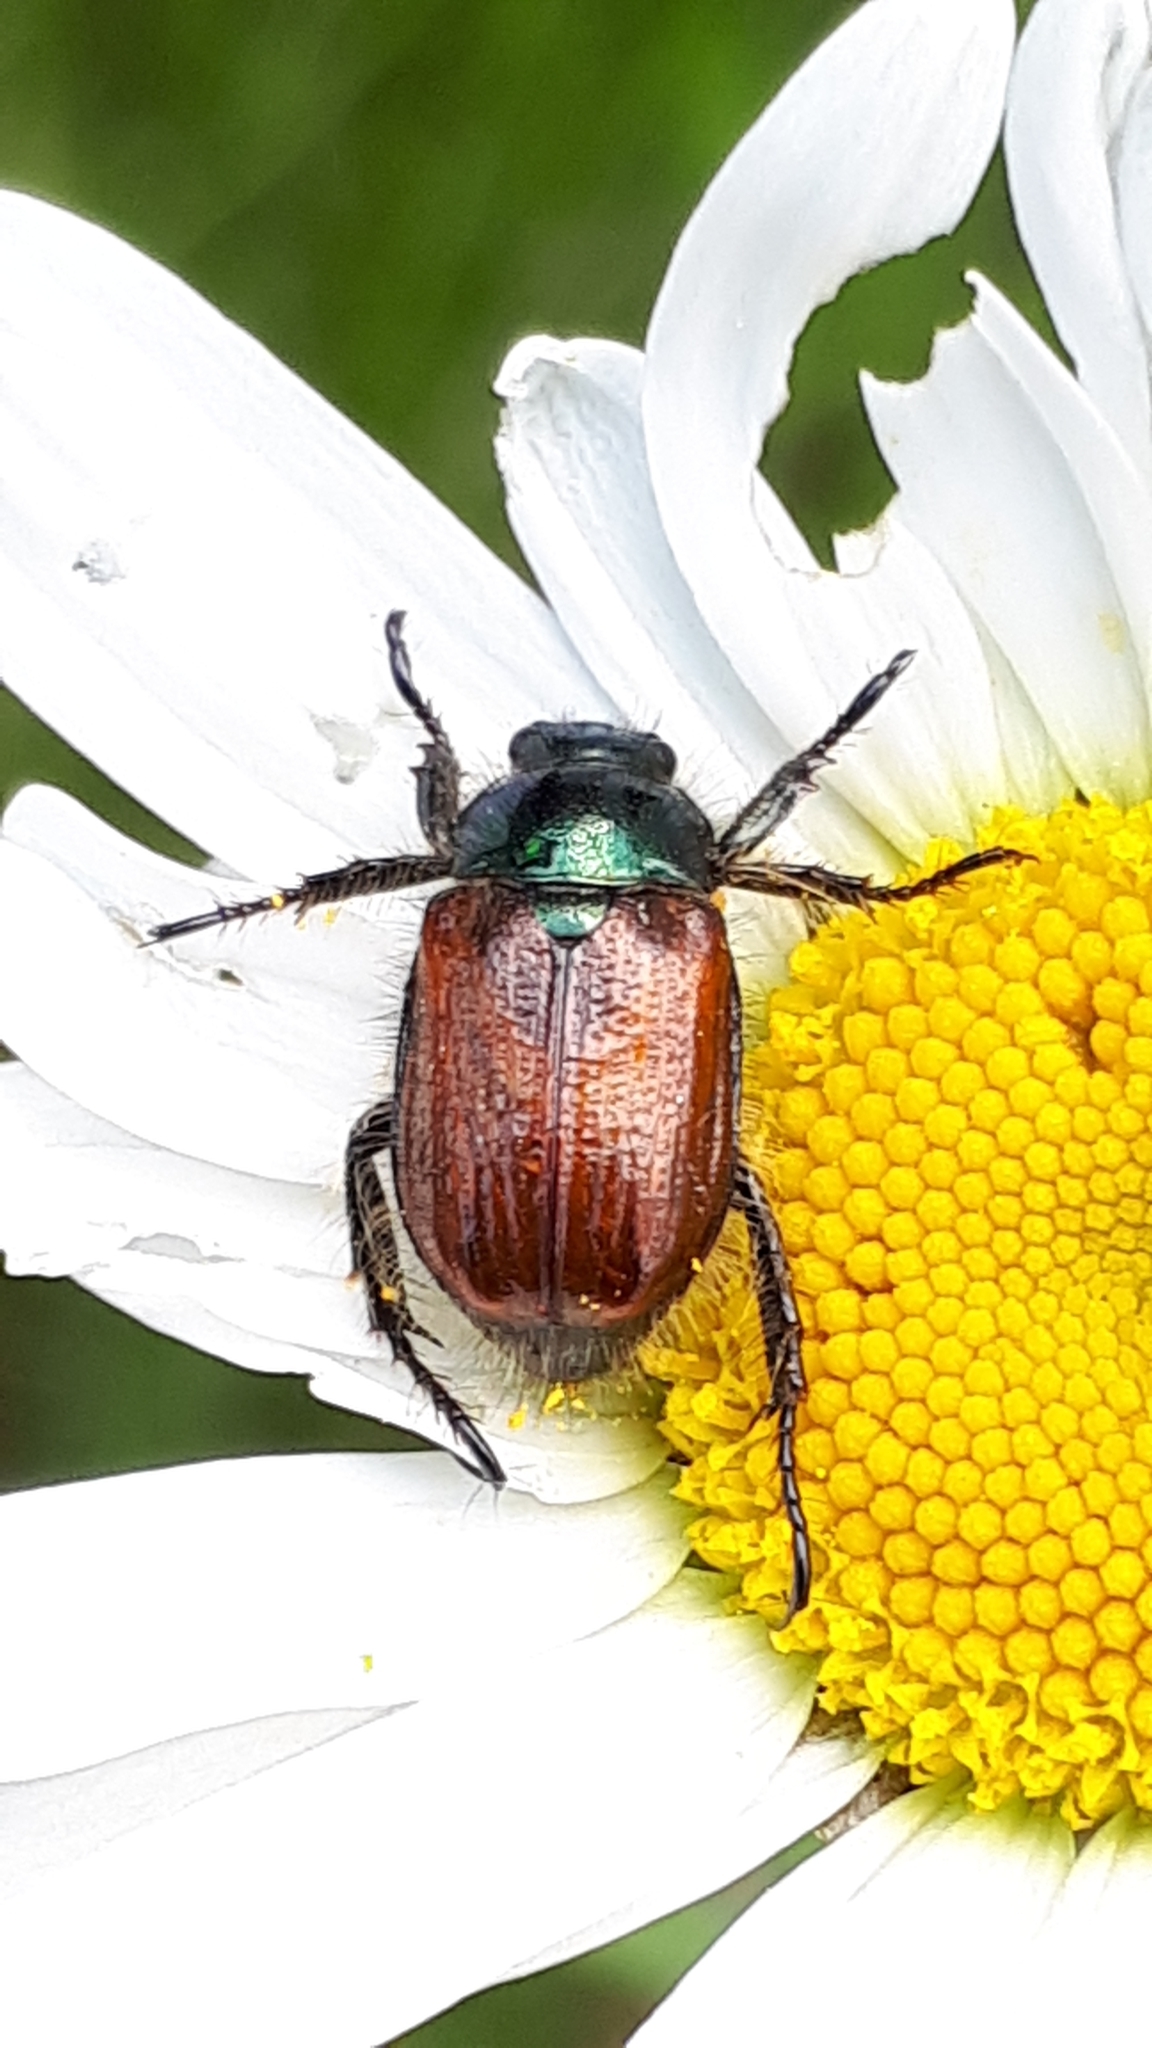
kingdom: Animalia
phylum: Arthropoda
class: Insecta
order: Coleoptera
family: Scarabaeidae
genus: Phyllopertha
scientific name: Phyllopertha horticola
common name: Garden chafer
